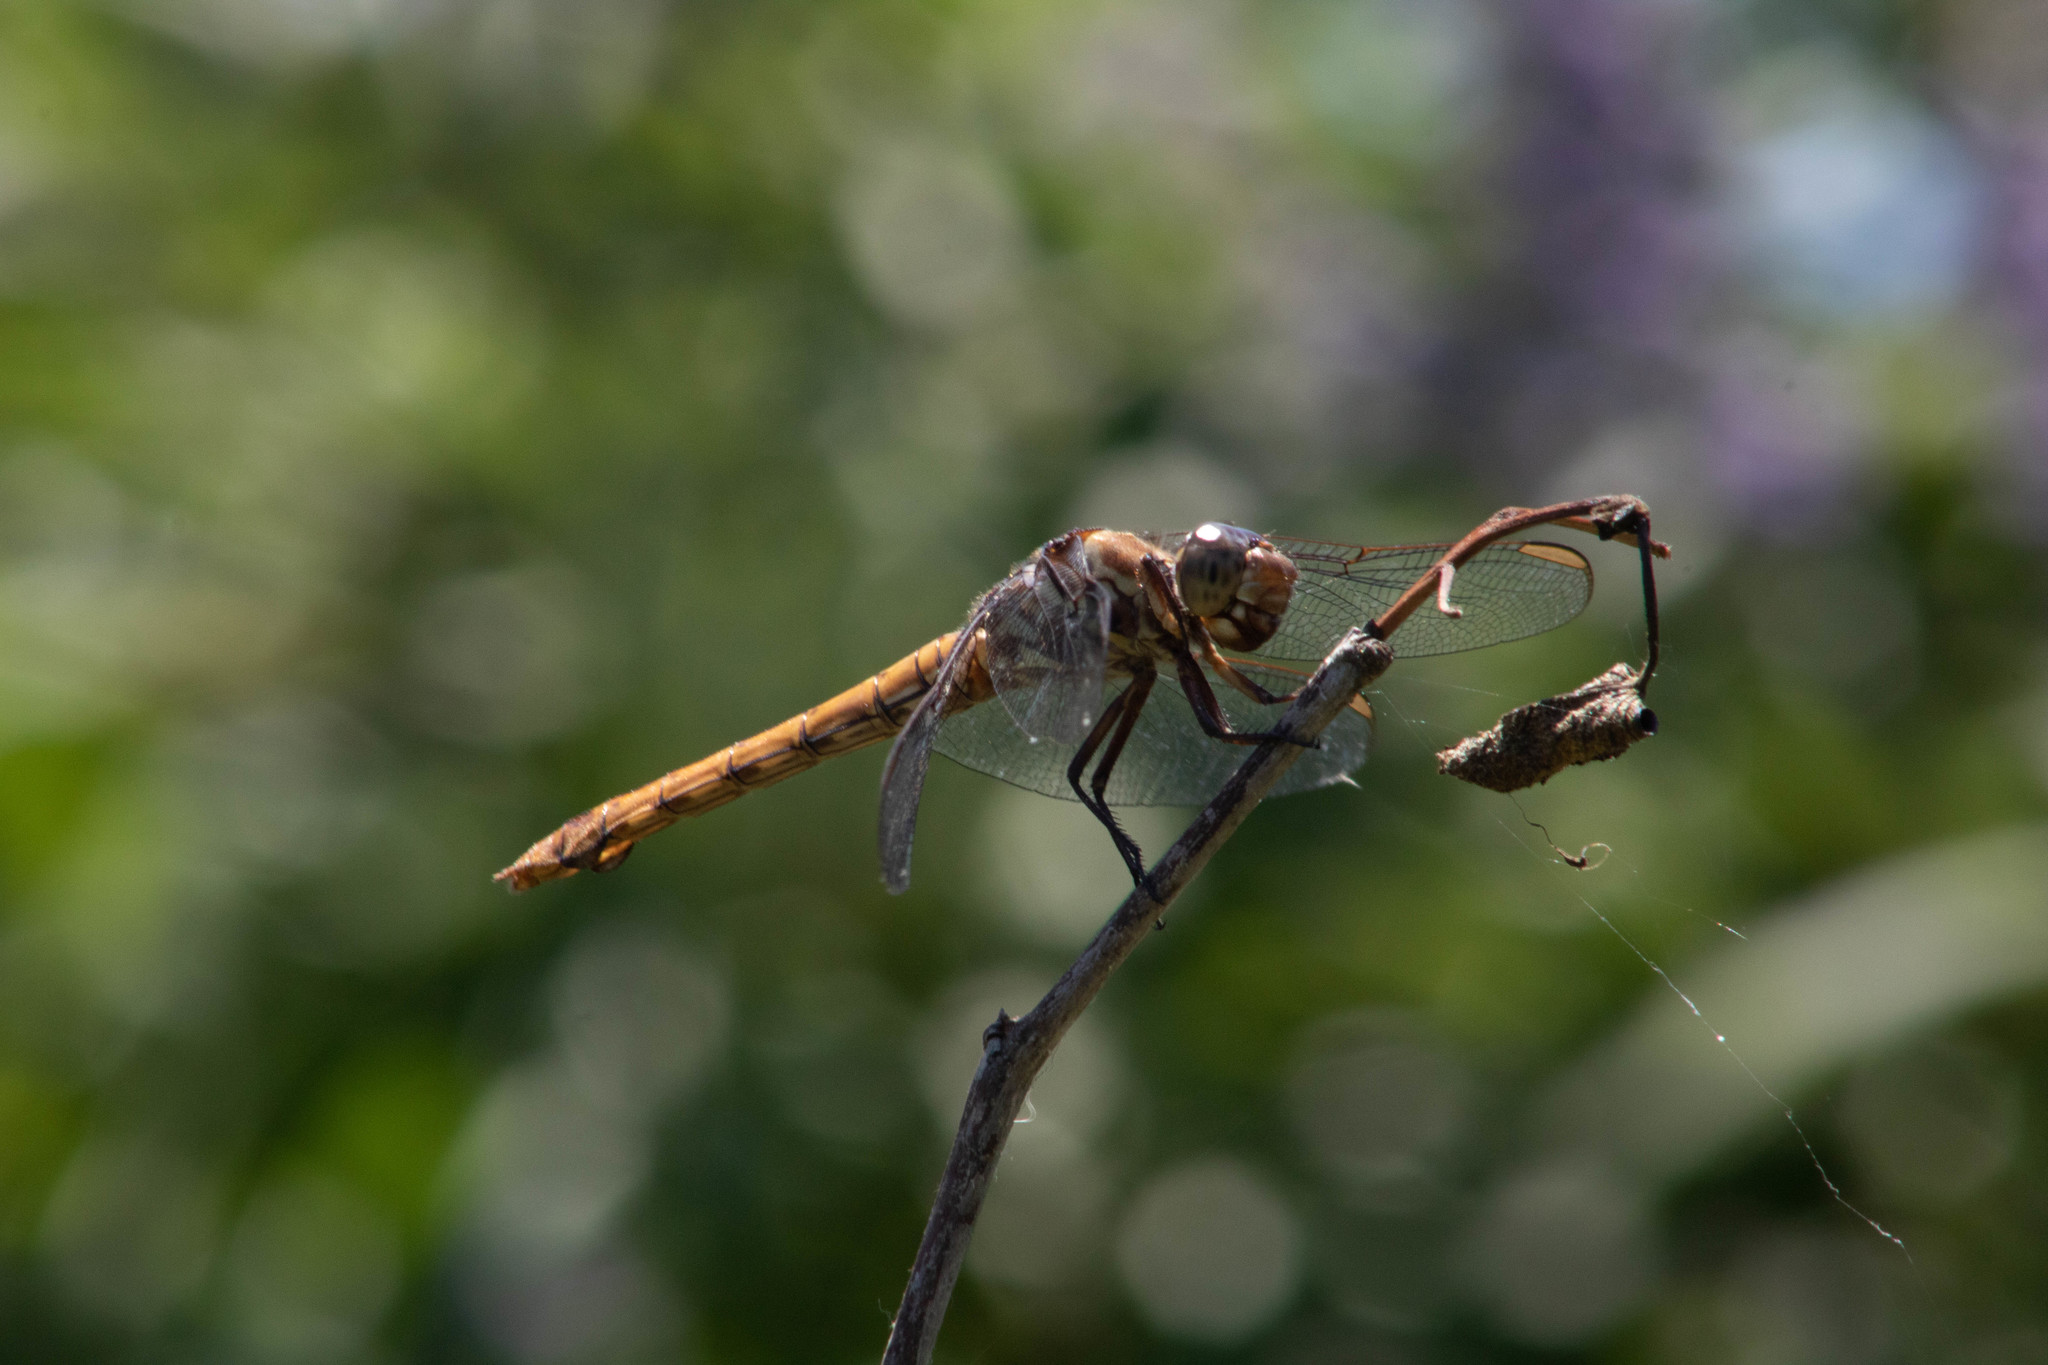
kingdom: Animalia
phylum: Arthropoda
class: Insecta
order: Odonata
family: Libellulidae
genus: Orthemis
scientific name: Orthemis ferruginea
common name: Roseate skimmer
